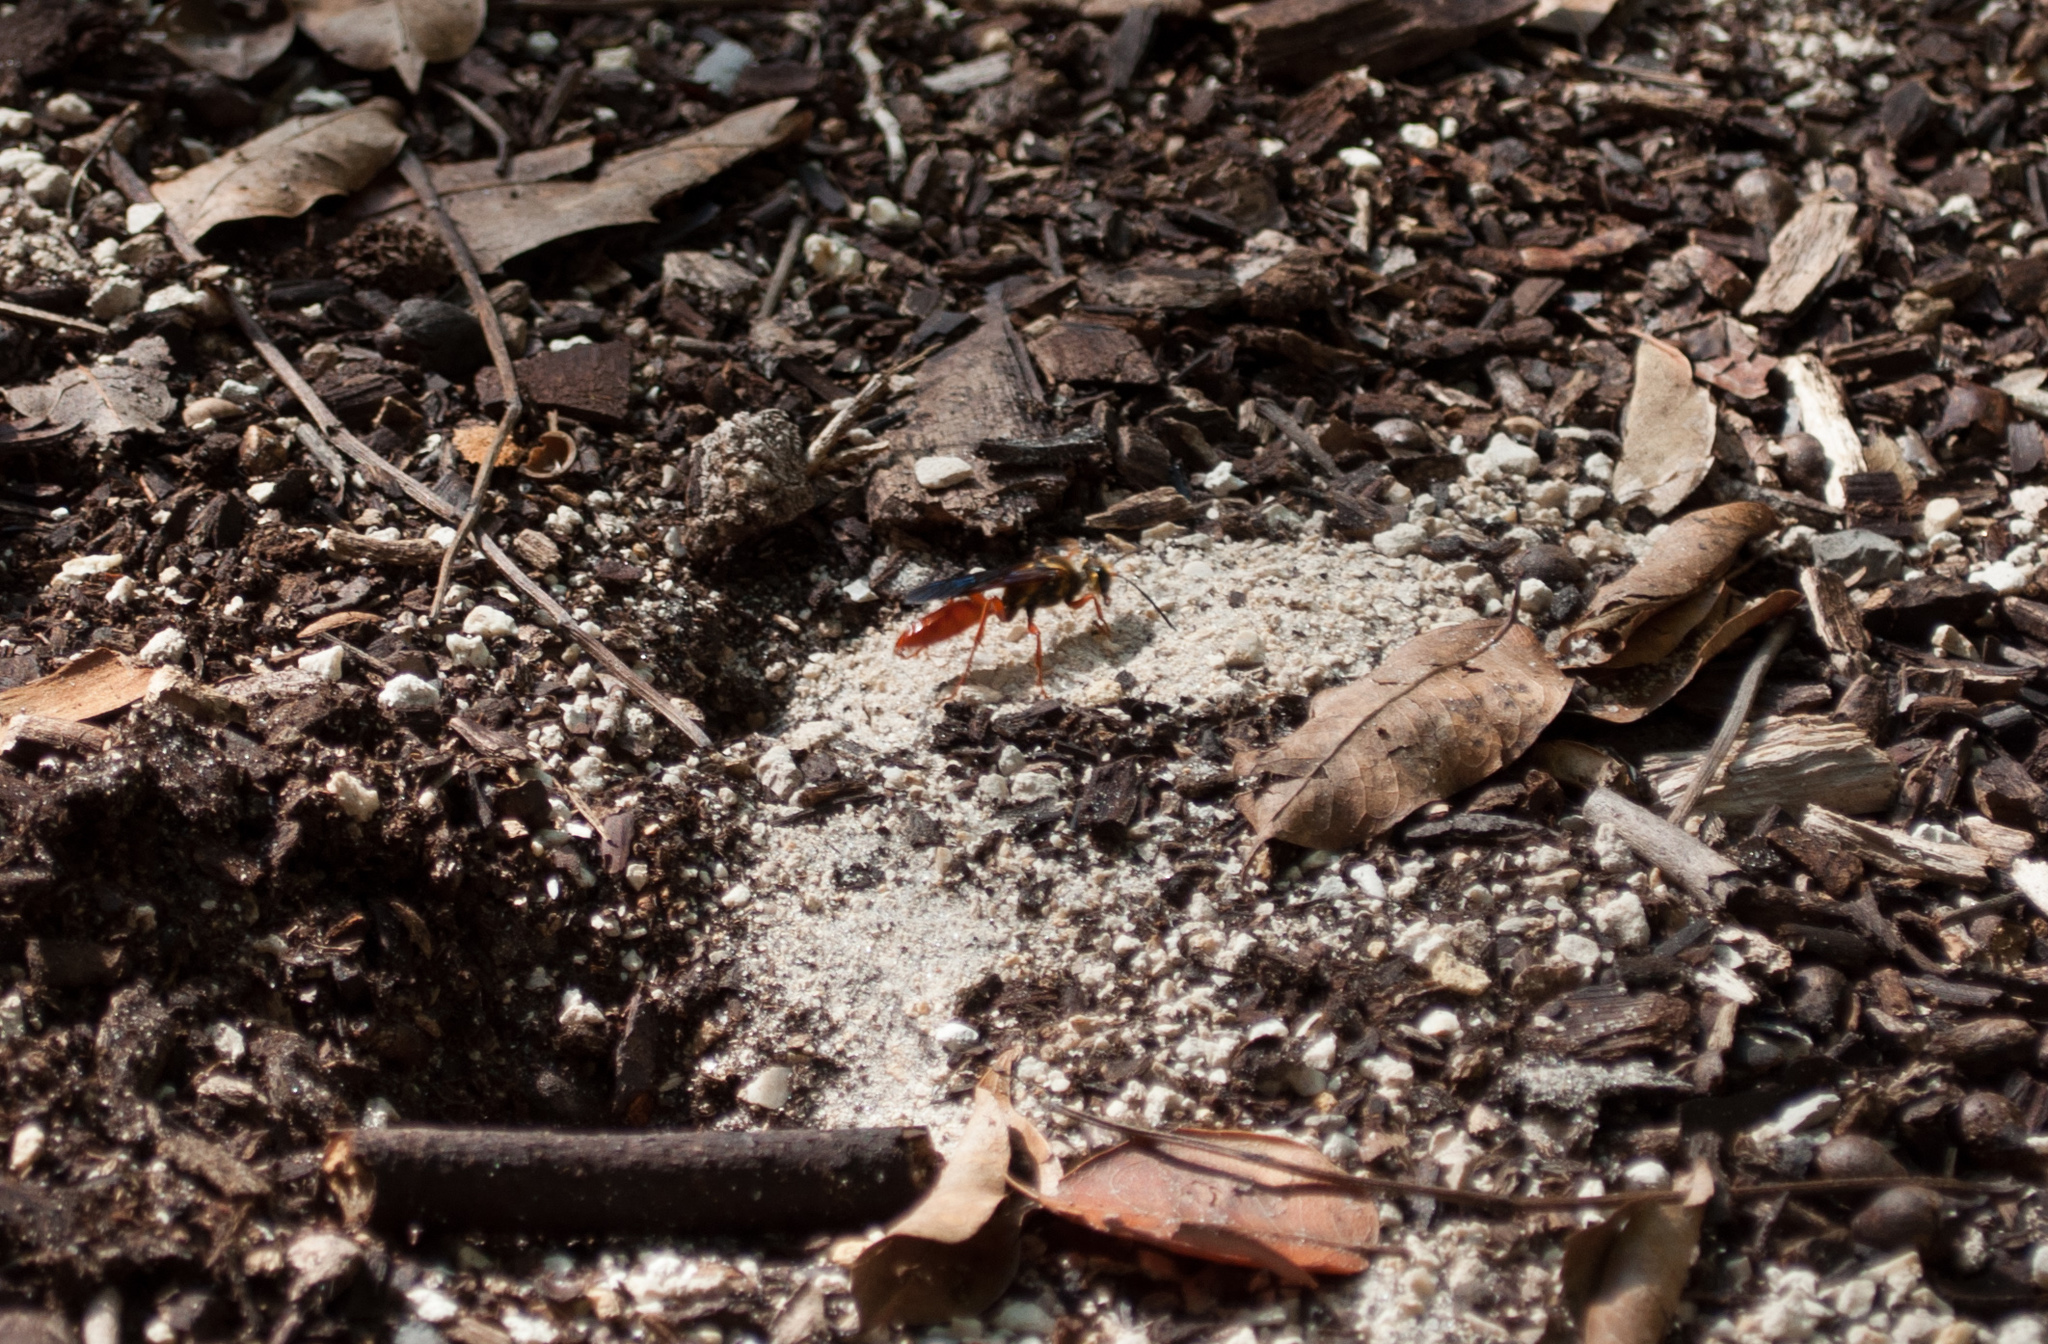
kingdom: Animalia
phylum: Arthropoda
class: Insecta
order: Hymenoptera
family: Sphecidae
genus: Sphex
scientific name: Sphex jamaicensis
